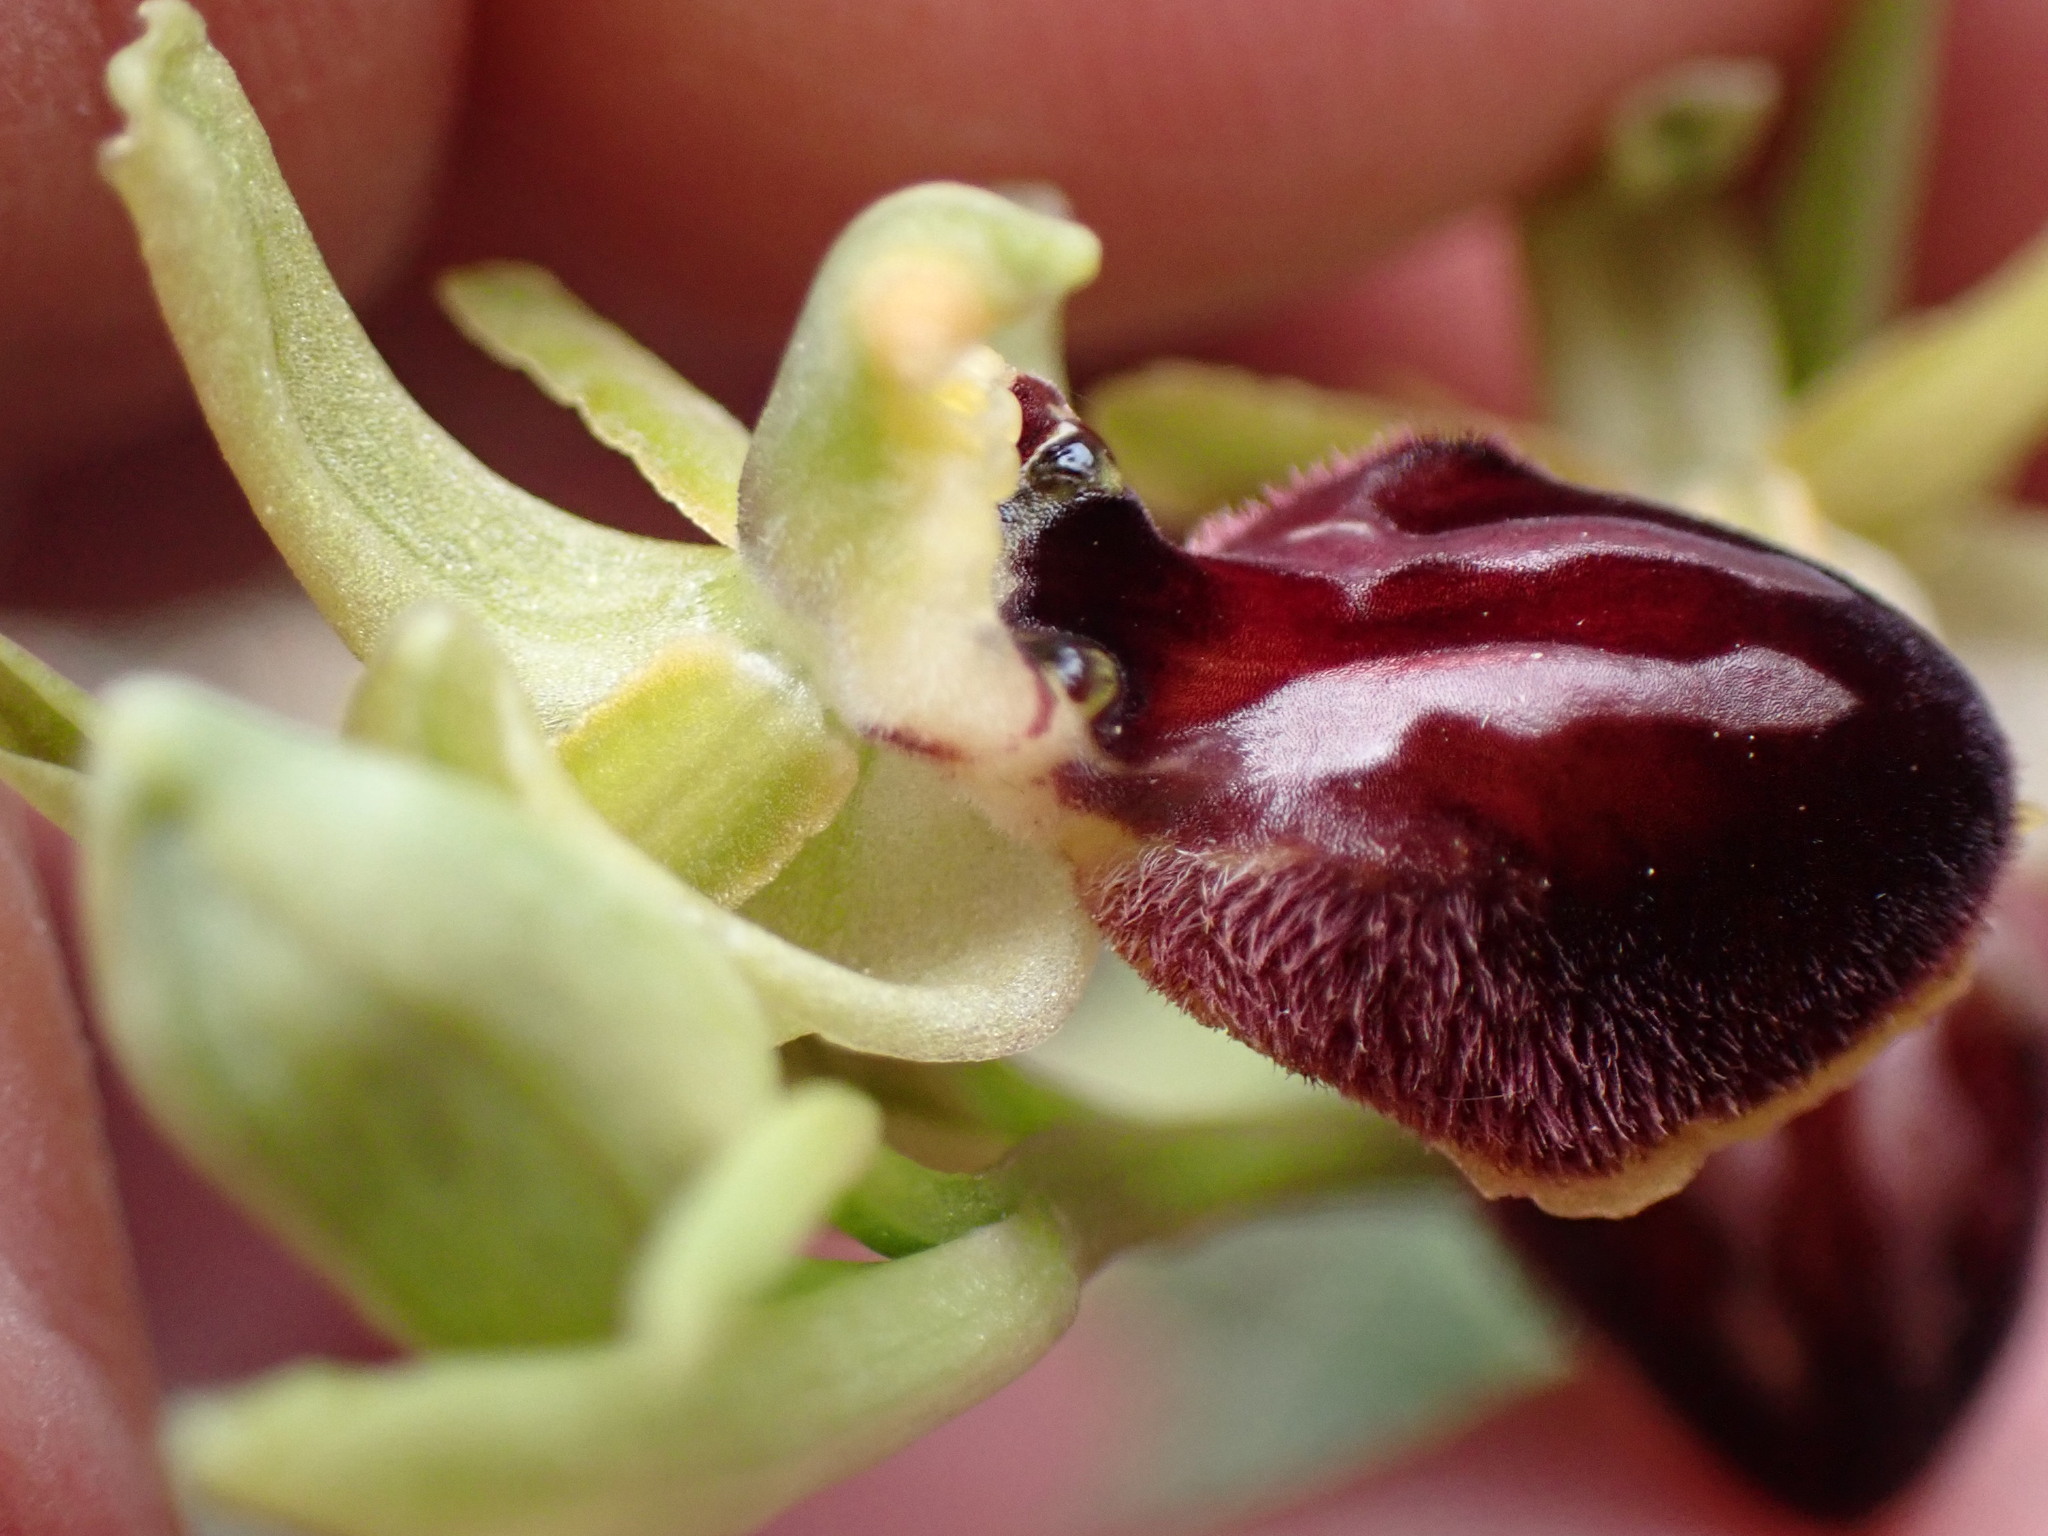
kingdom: Plantae
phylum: Tracheophyta
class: Liliopsida
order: Asparagales
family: Orchidaceae
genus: Ophrys
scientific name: Ophrys arachnitiformis
